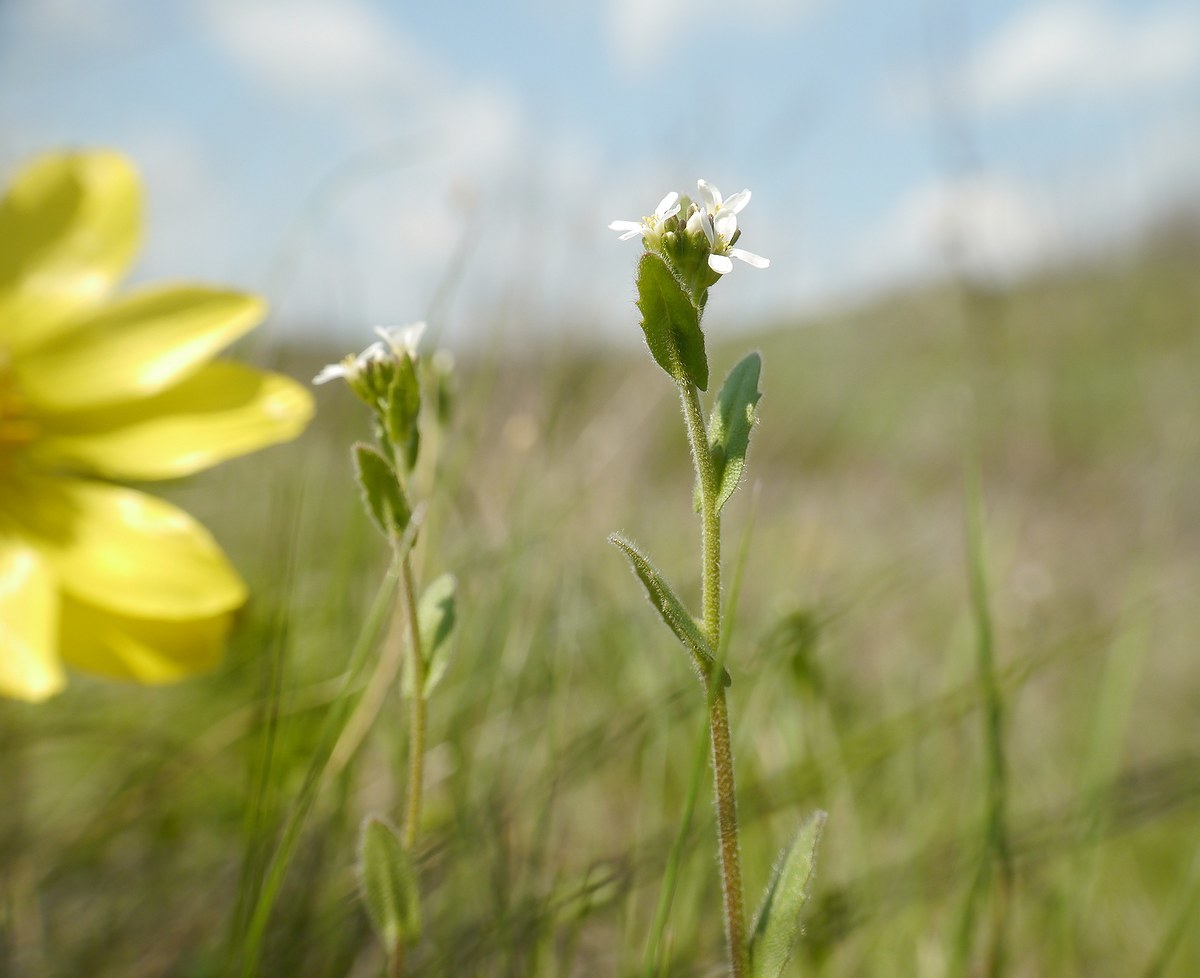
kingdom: Plantae
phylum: Tracheophyta
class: Magnoliopsida
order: Brassicales
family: Brassicaceae
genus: Arabis
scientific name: Arabis auriculata
